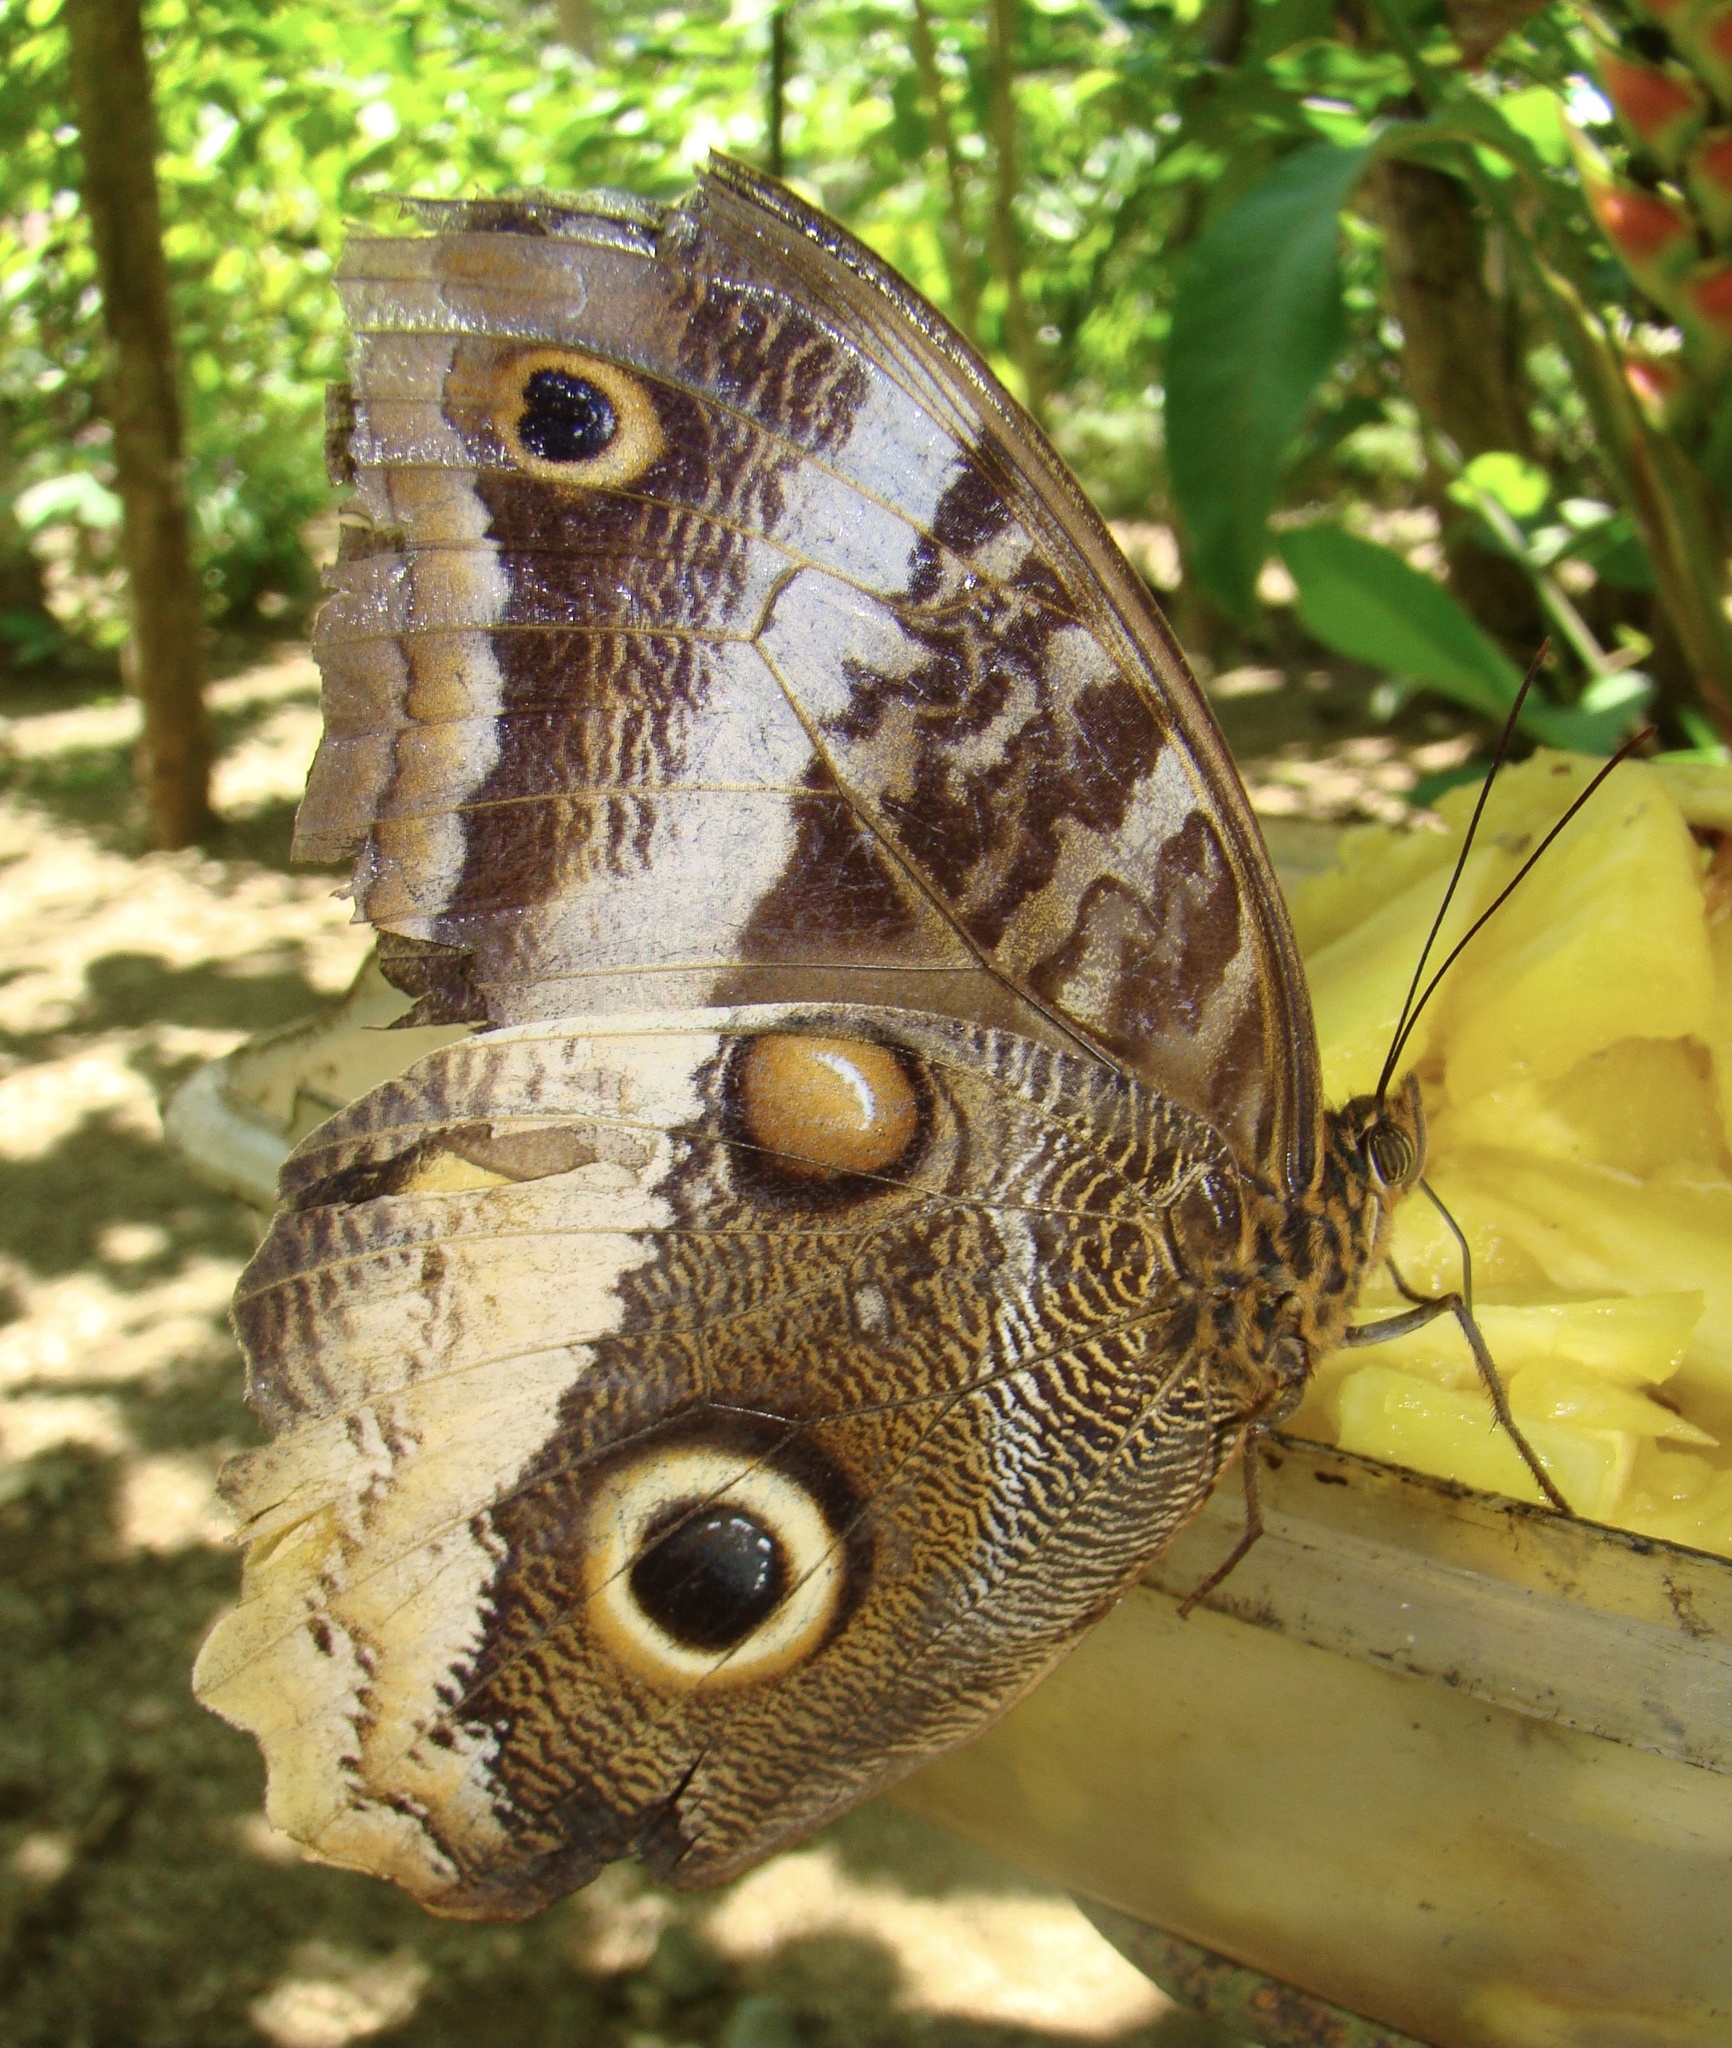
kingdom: Animalia
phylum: Arthropoda
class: Insecta
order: Lepidoptera
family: Nymphalidae
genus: Caligo
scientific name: Caligo atreus
